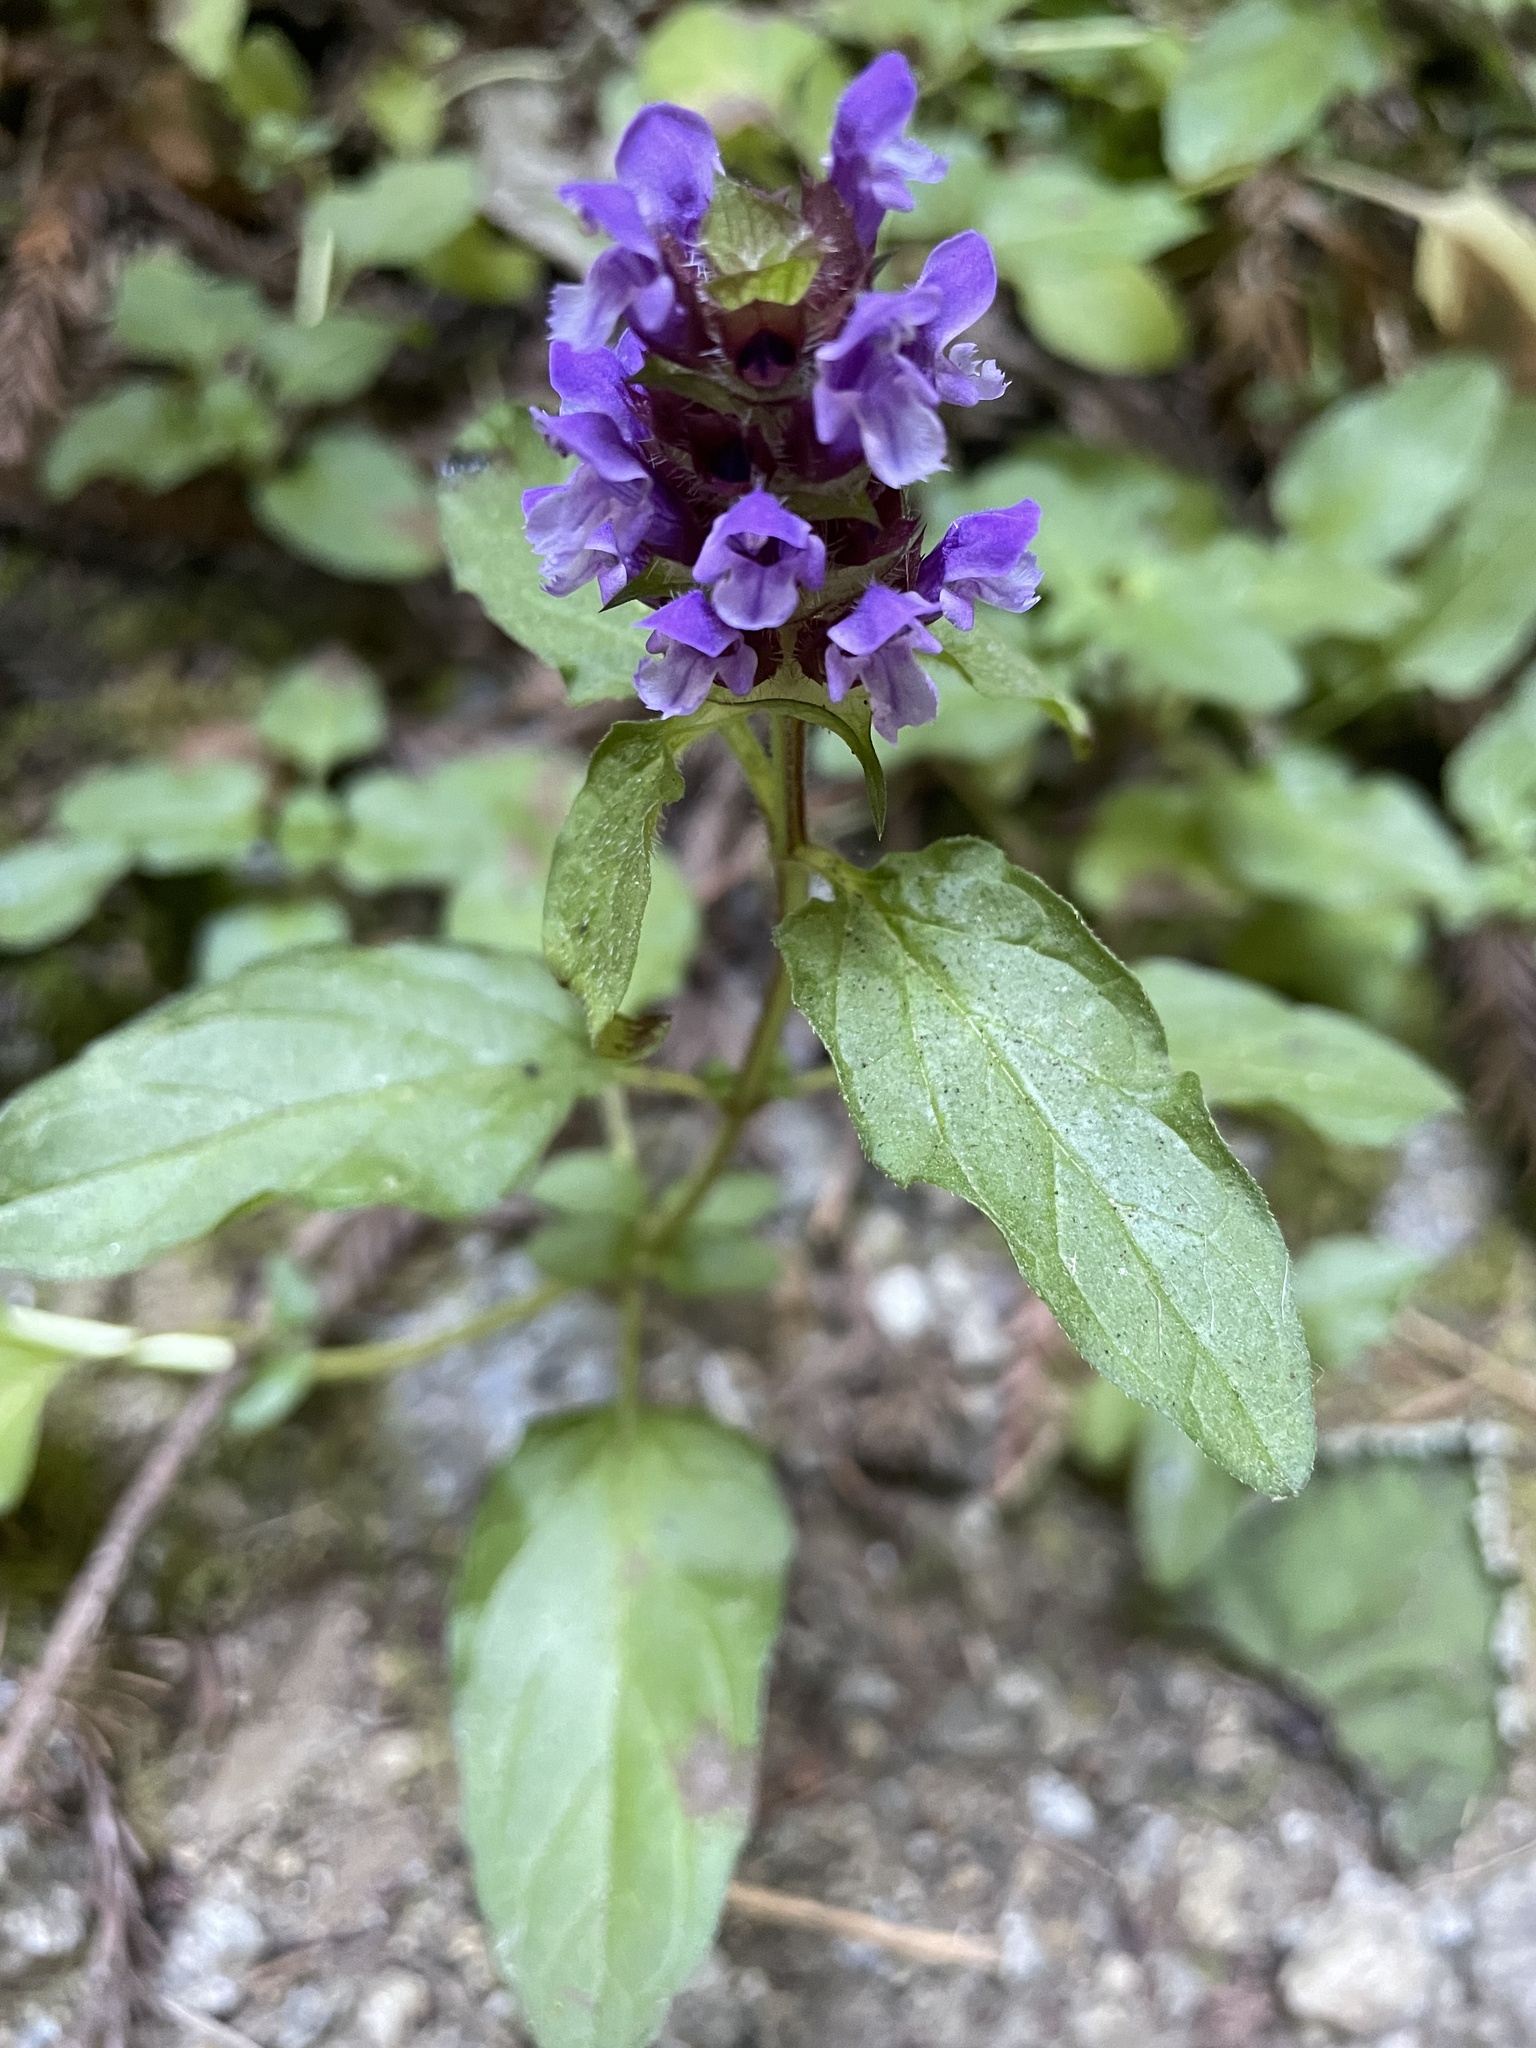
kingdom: Plantae
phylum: Tracheophyta
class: Magnoliopsida
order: Lamiales
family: Lamiaceae
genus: Prunella
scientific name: Prunella vulgaris
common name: Heal-all
